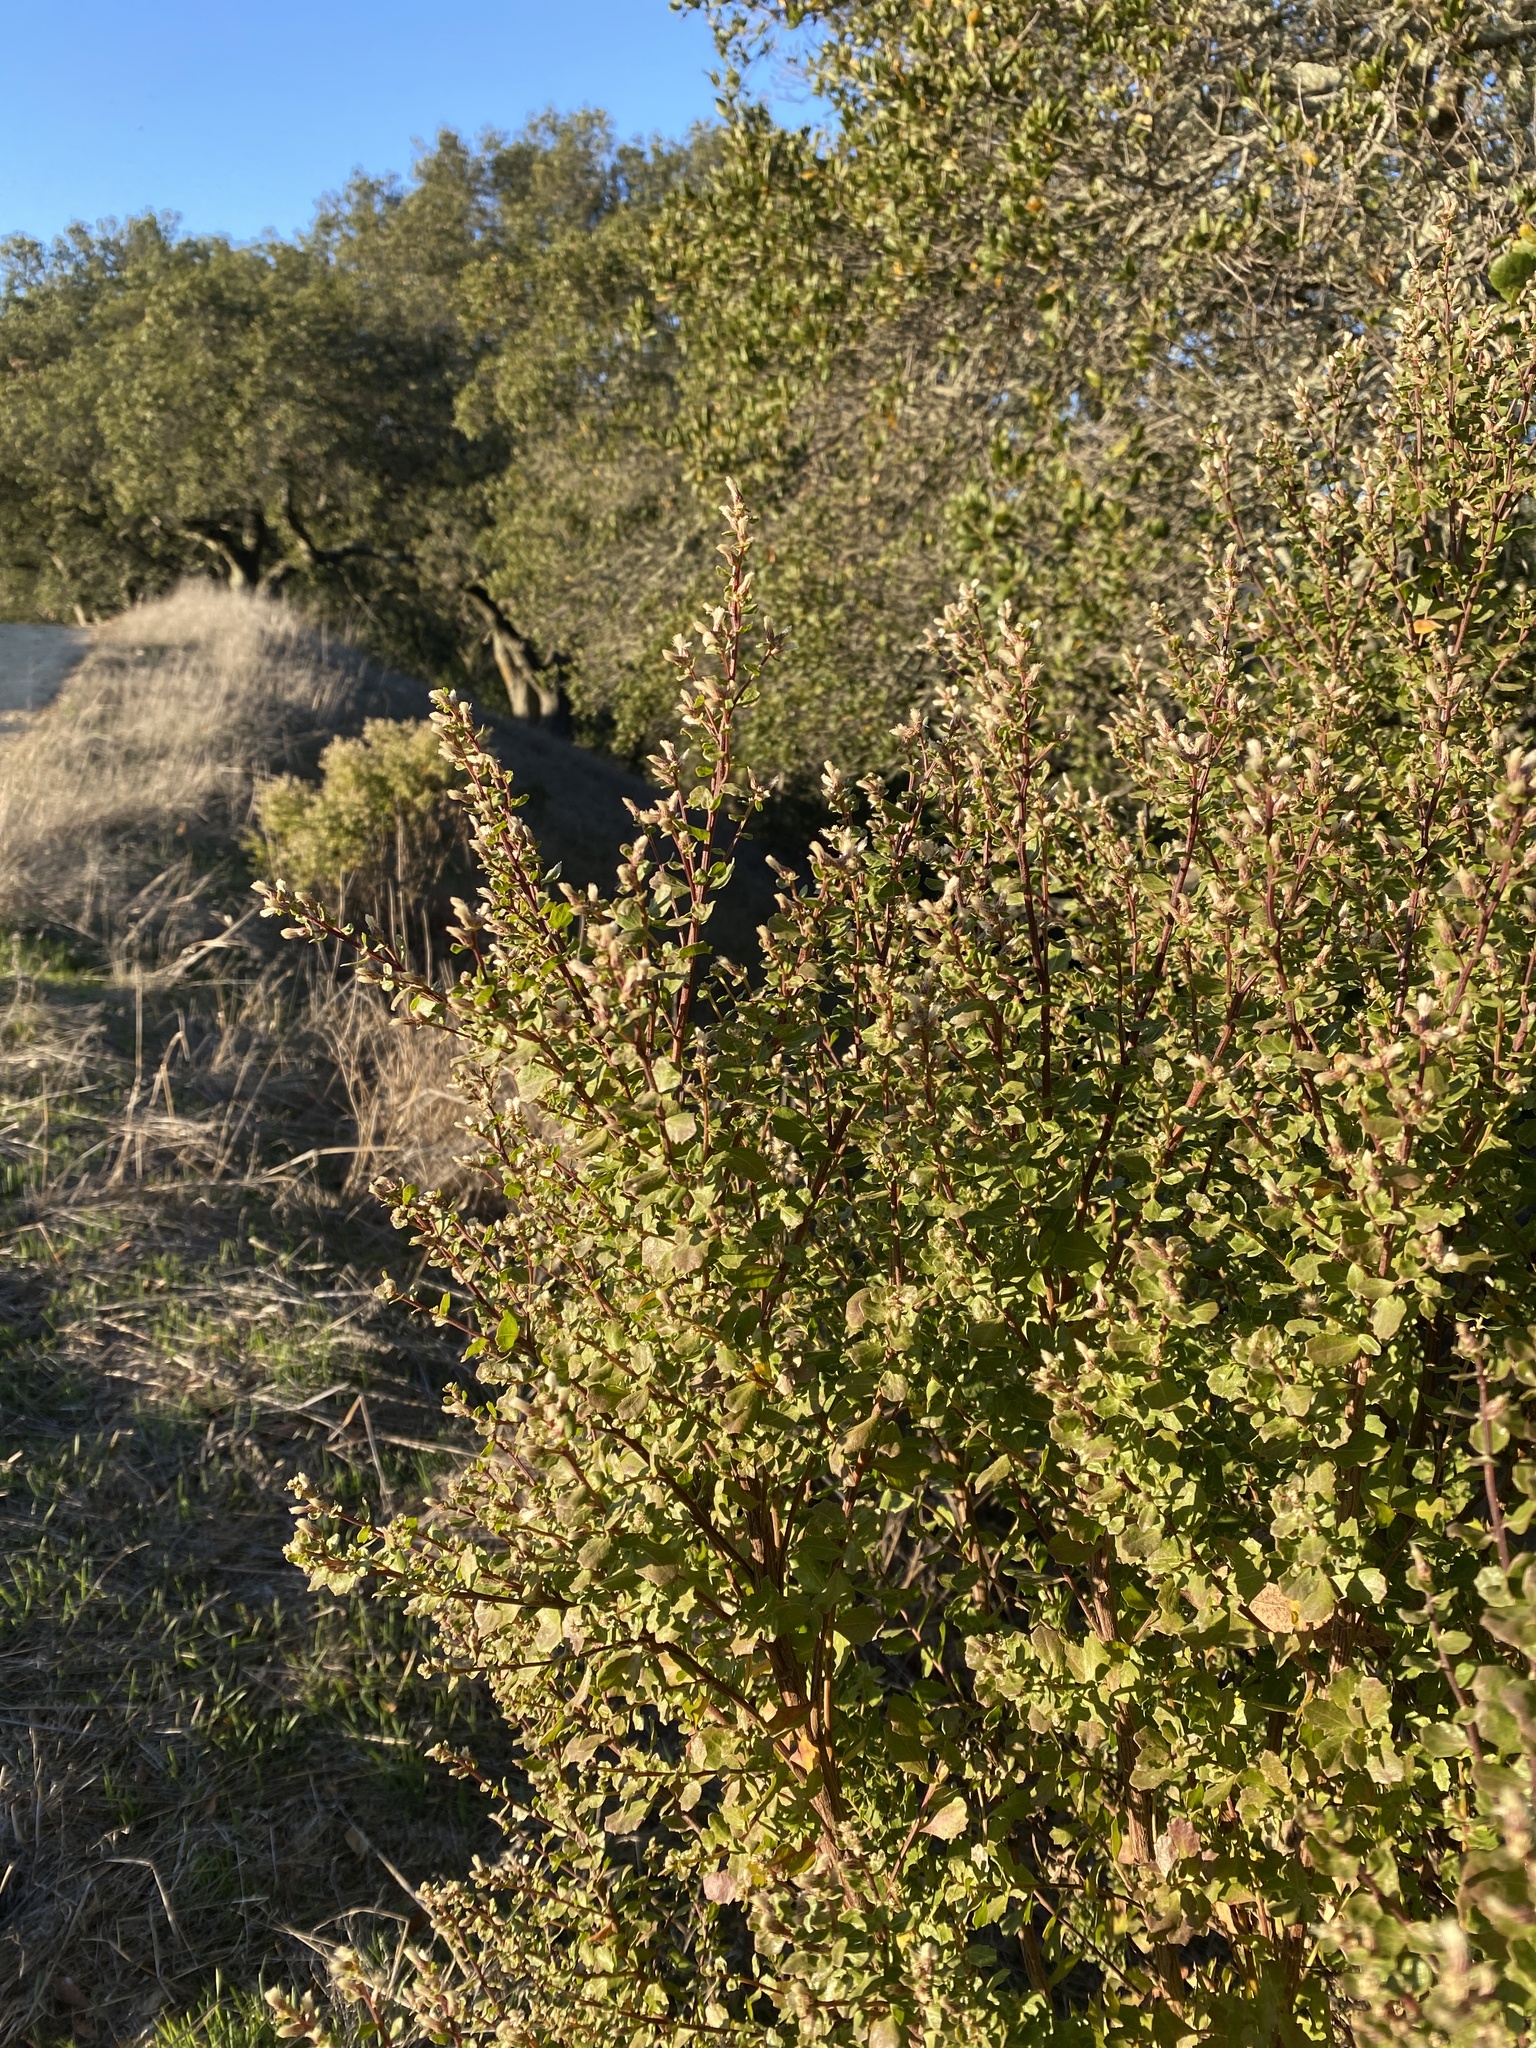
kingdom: Plantae
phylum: Tracheophyta
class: Magnoliopsida
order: Asterales
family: Asteraceae
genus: Baccharis
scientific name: Baccharis pilularis
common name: Coyotebrush
